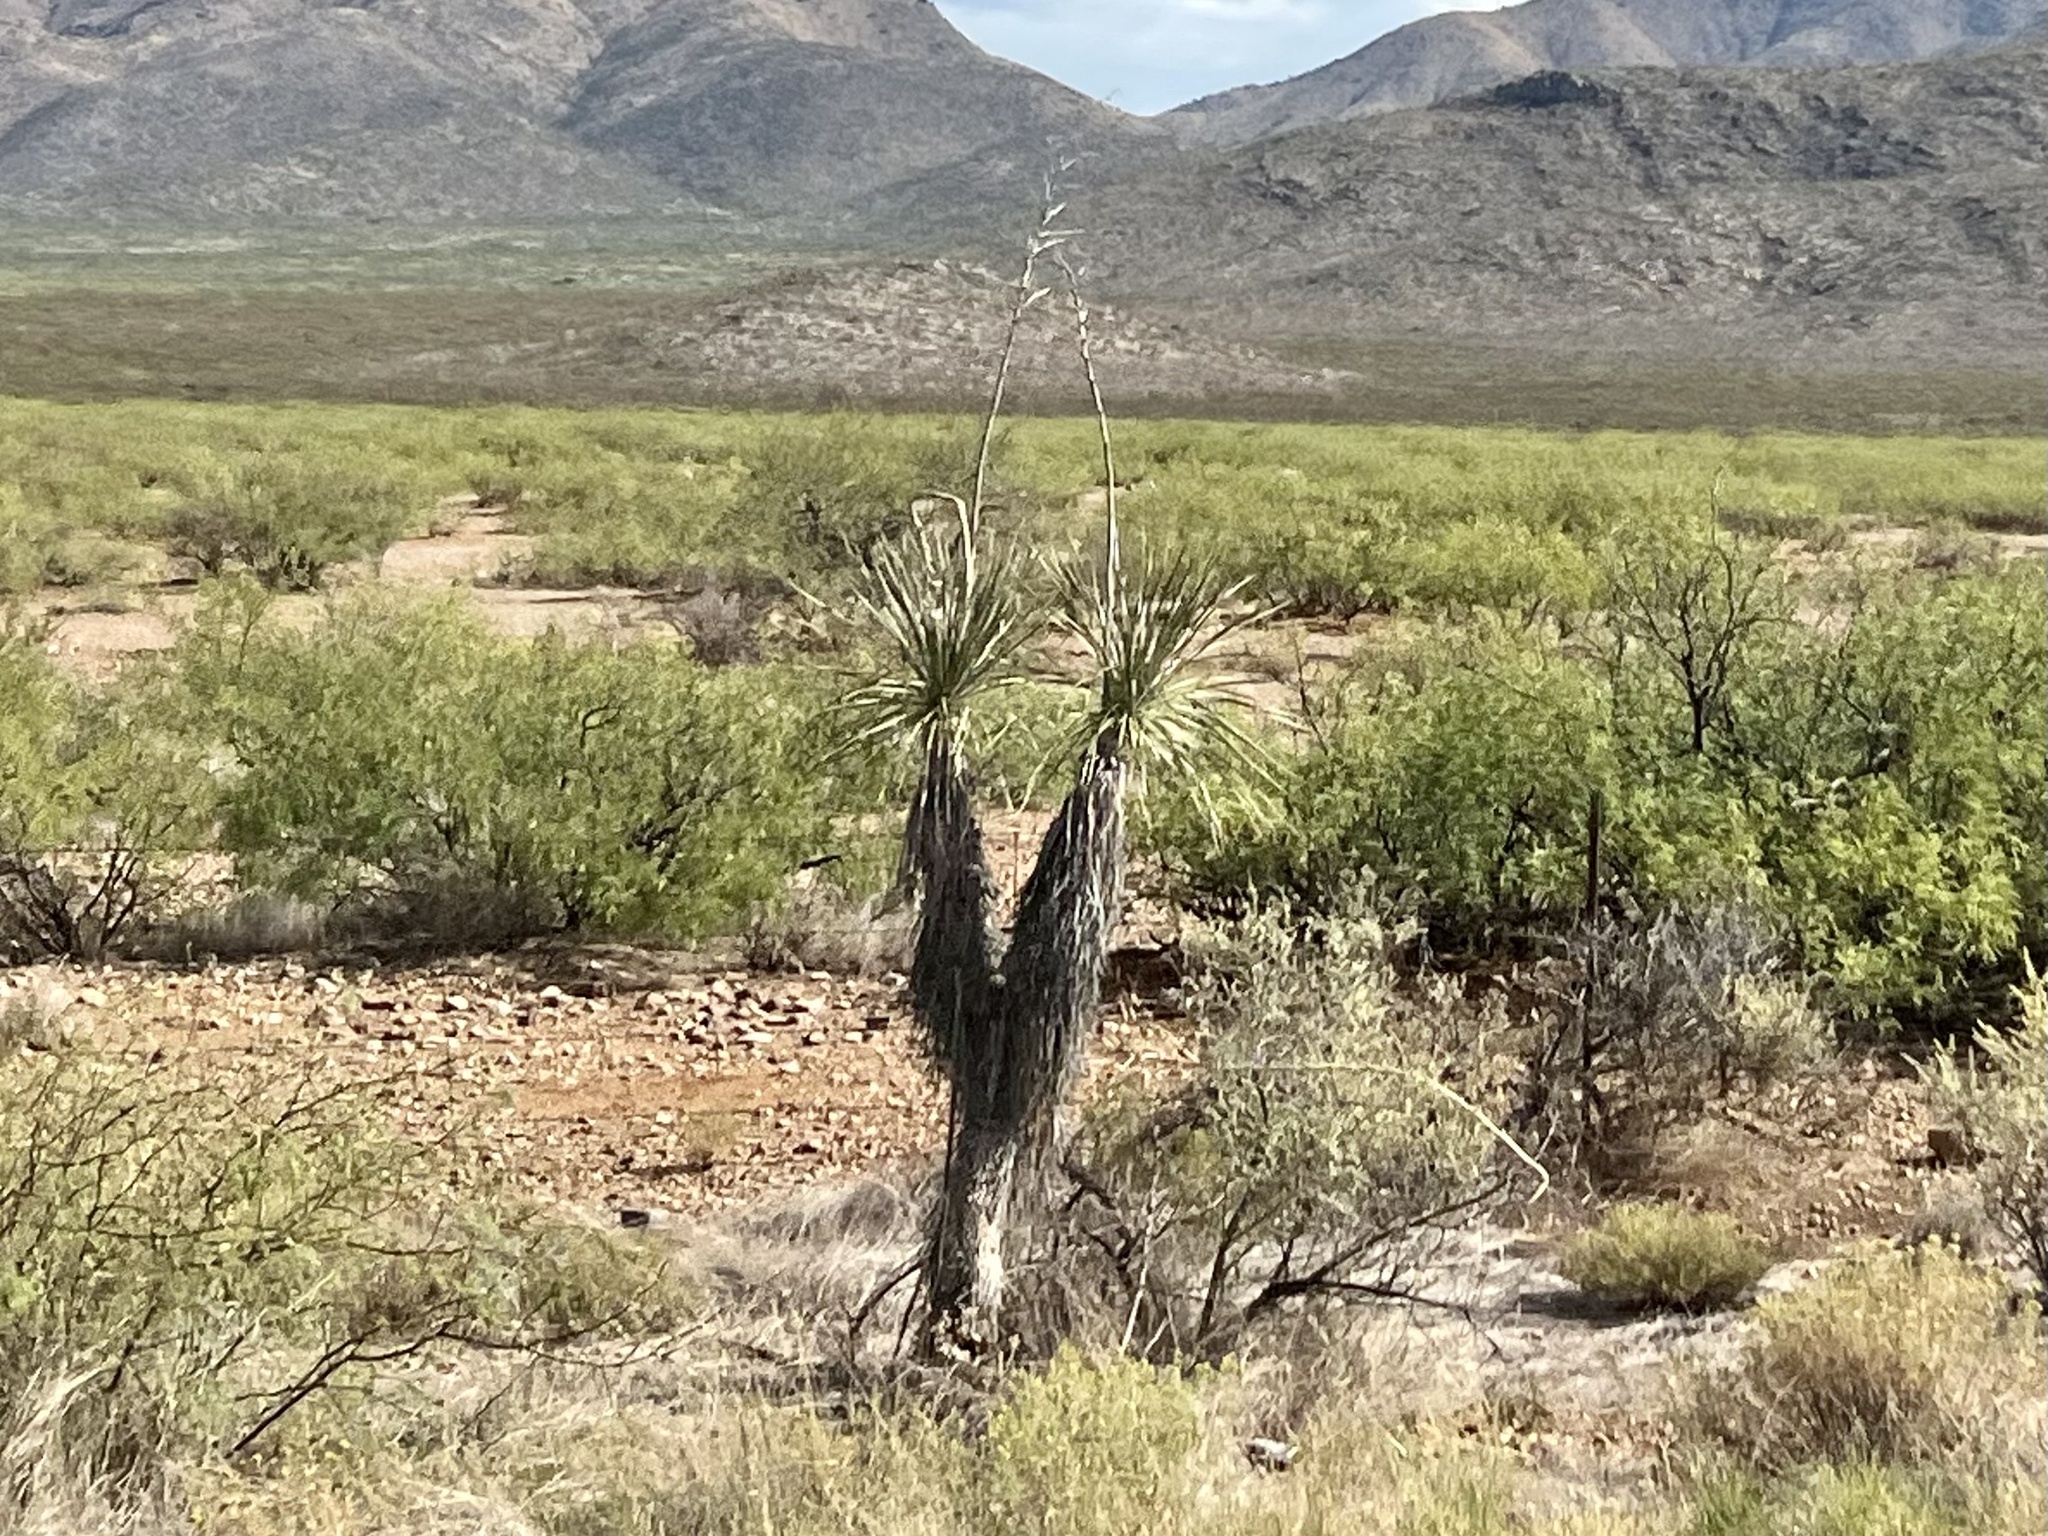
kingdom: Plantae
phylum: Tracheophyta
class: Liliopsida
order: Asparagales
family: Asparagaceae
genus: Yucca
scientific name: Yucca elata
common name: Palmella
